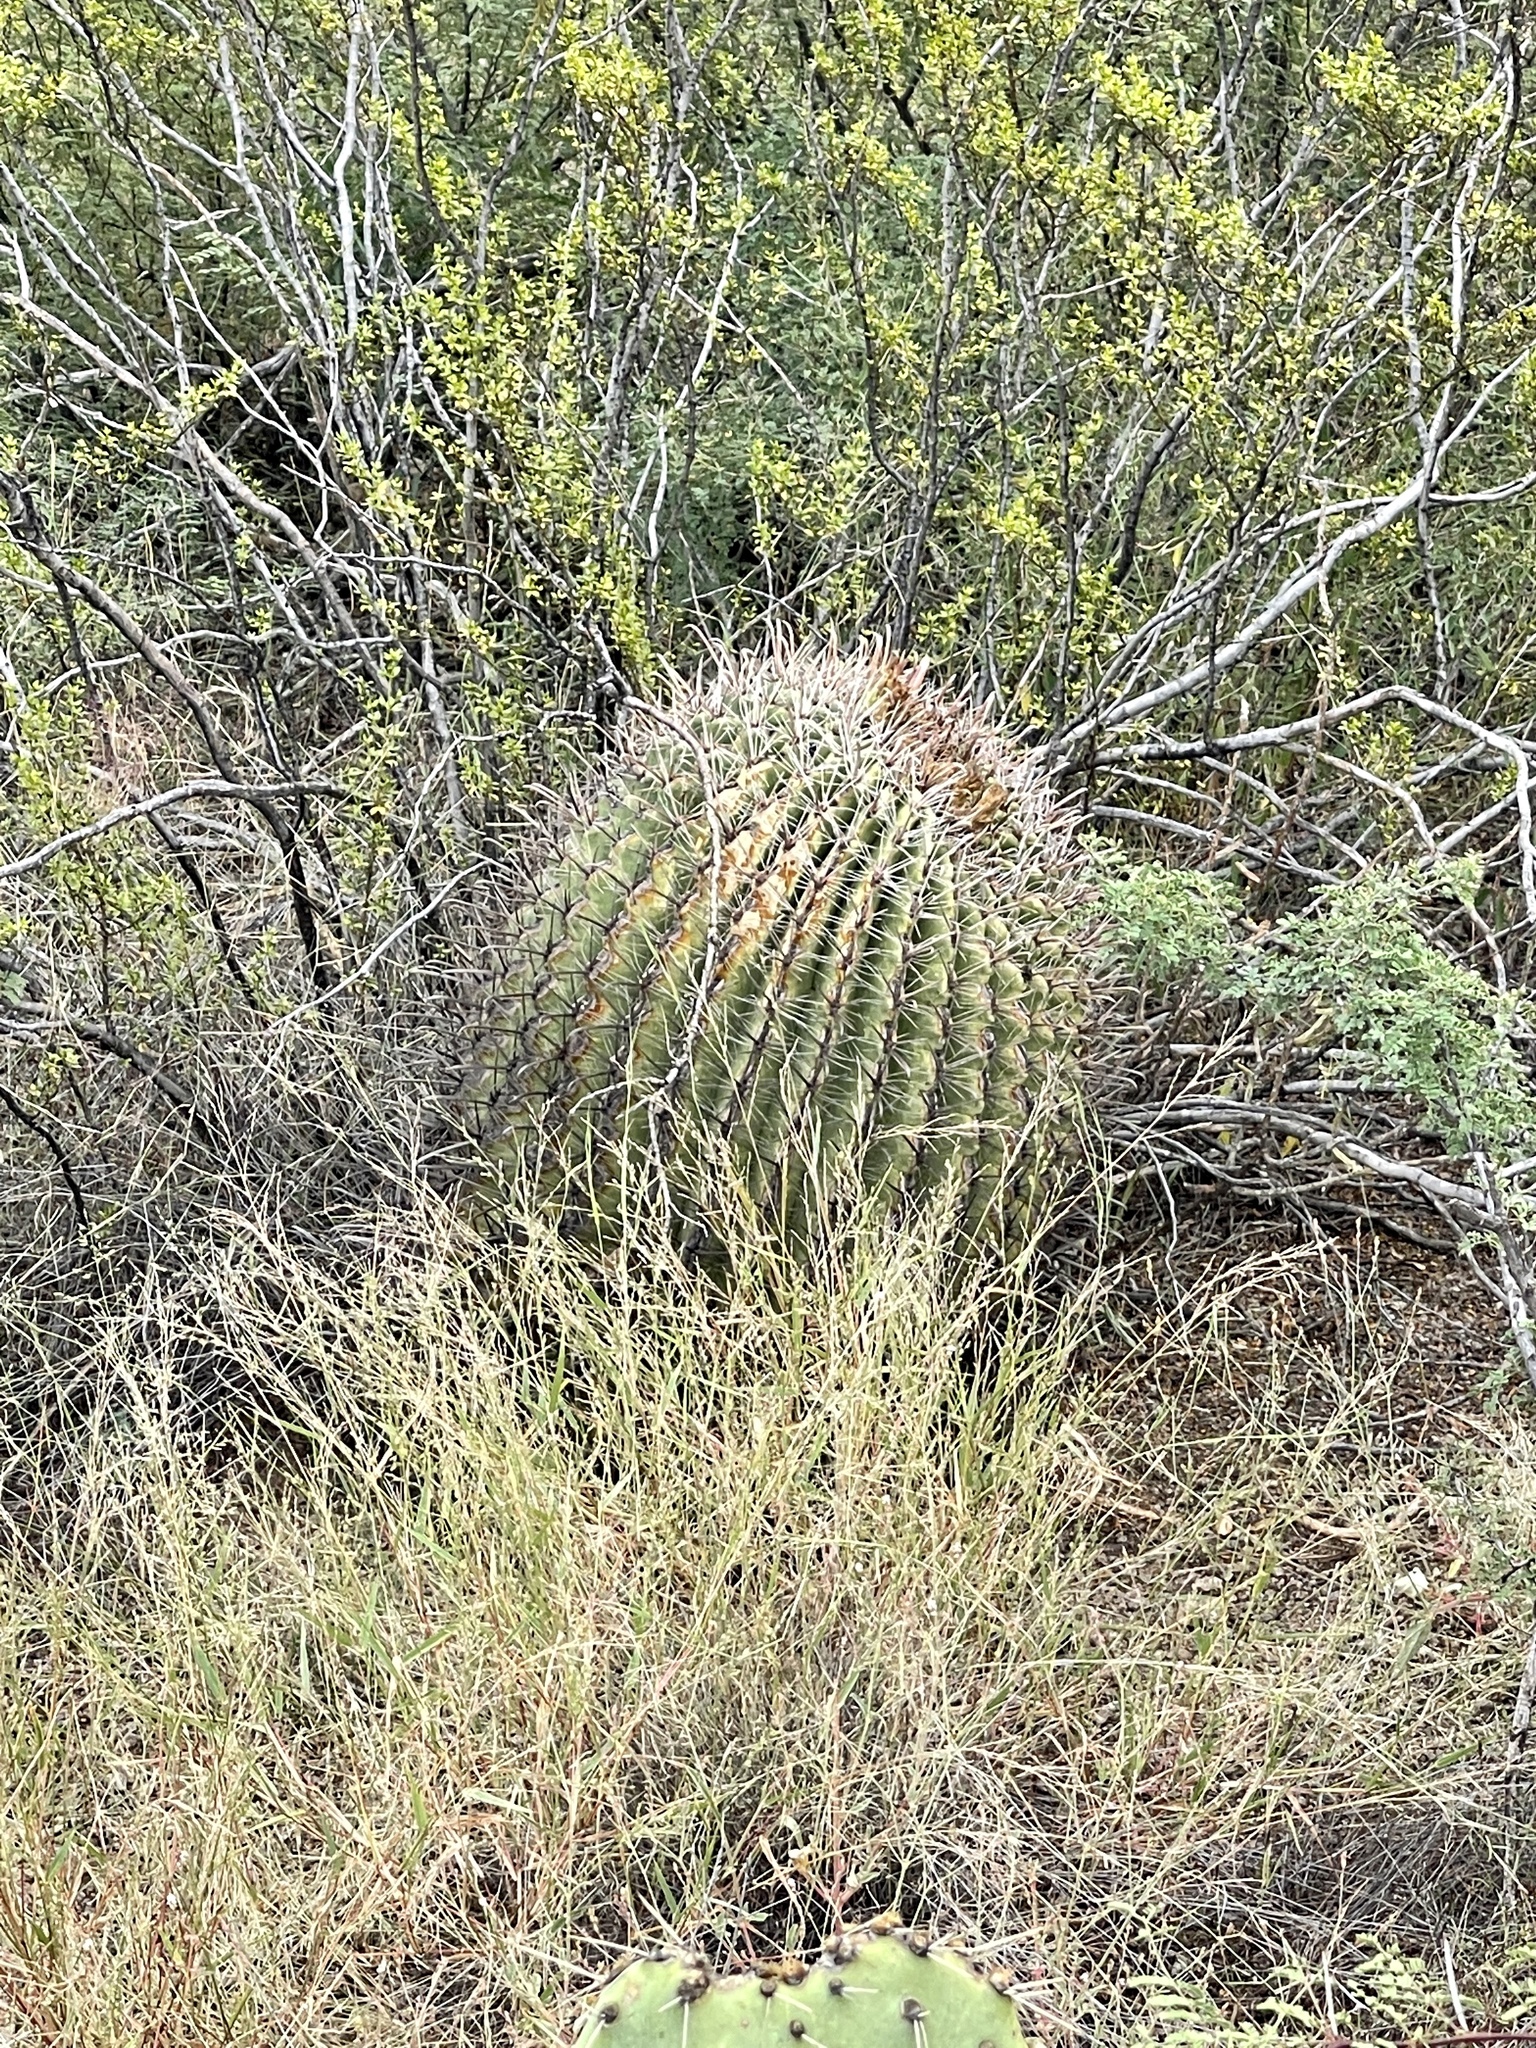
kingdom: Plantae
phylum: Tracheophyta
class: Magnoliopsida
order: Caryophyllales
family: Cactaceae
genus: Ferocactus
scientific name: Ferocactus wislizeni
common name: Candy barrel cactus
